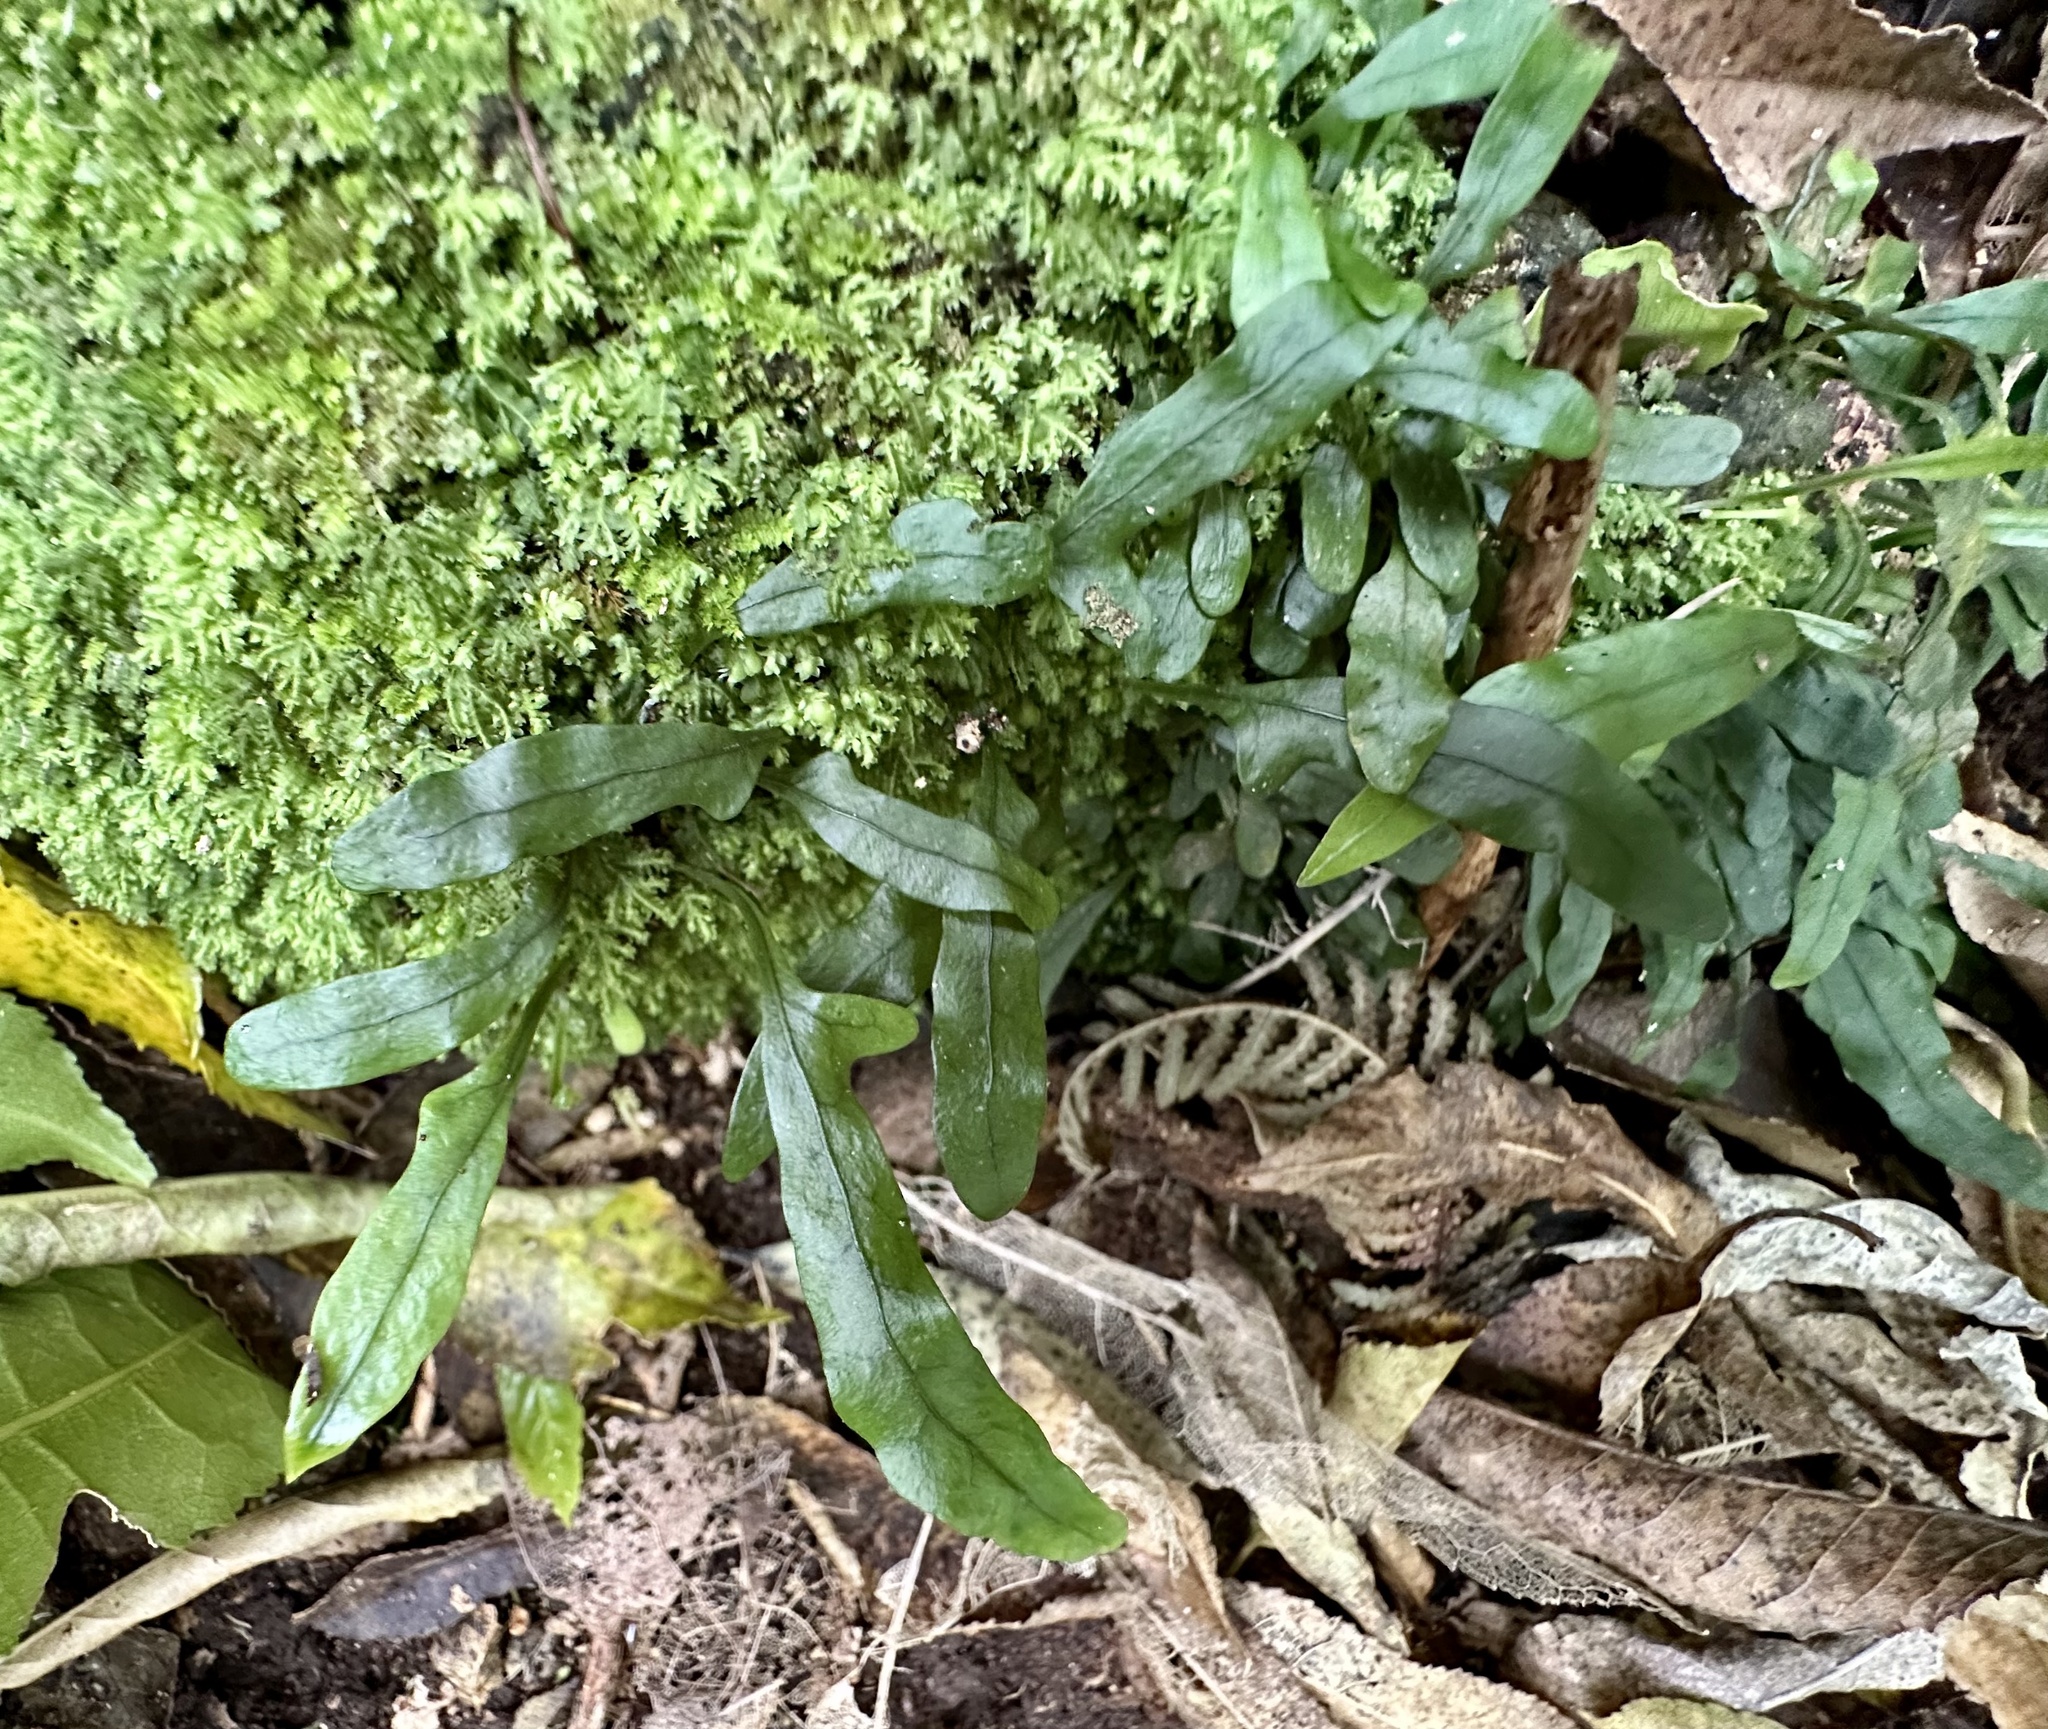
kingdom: Plantae
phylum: Tracheophyta
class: Polypodiopsida
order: Polypodiales
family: Polypodiaceae
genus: Lecanopteris
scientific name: Lecanopteris scandens
